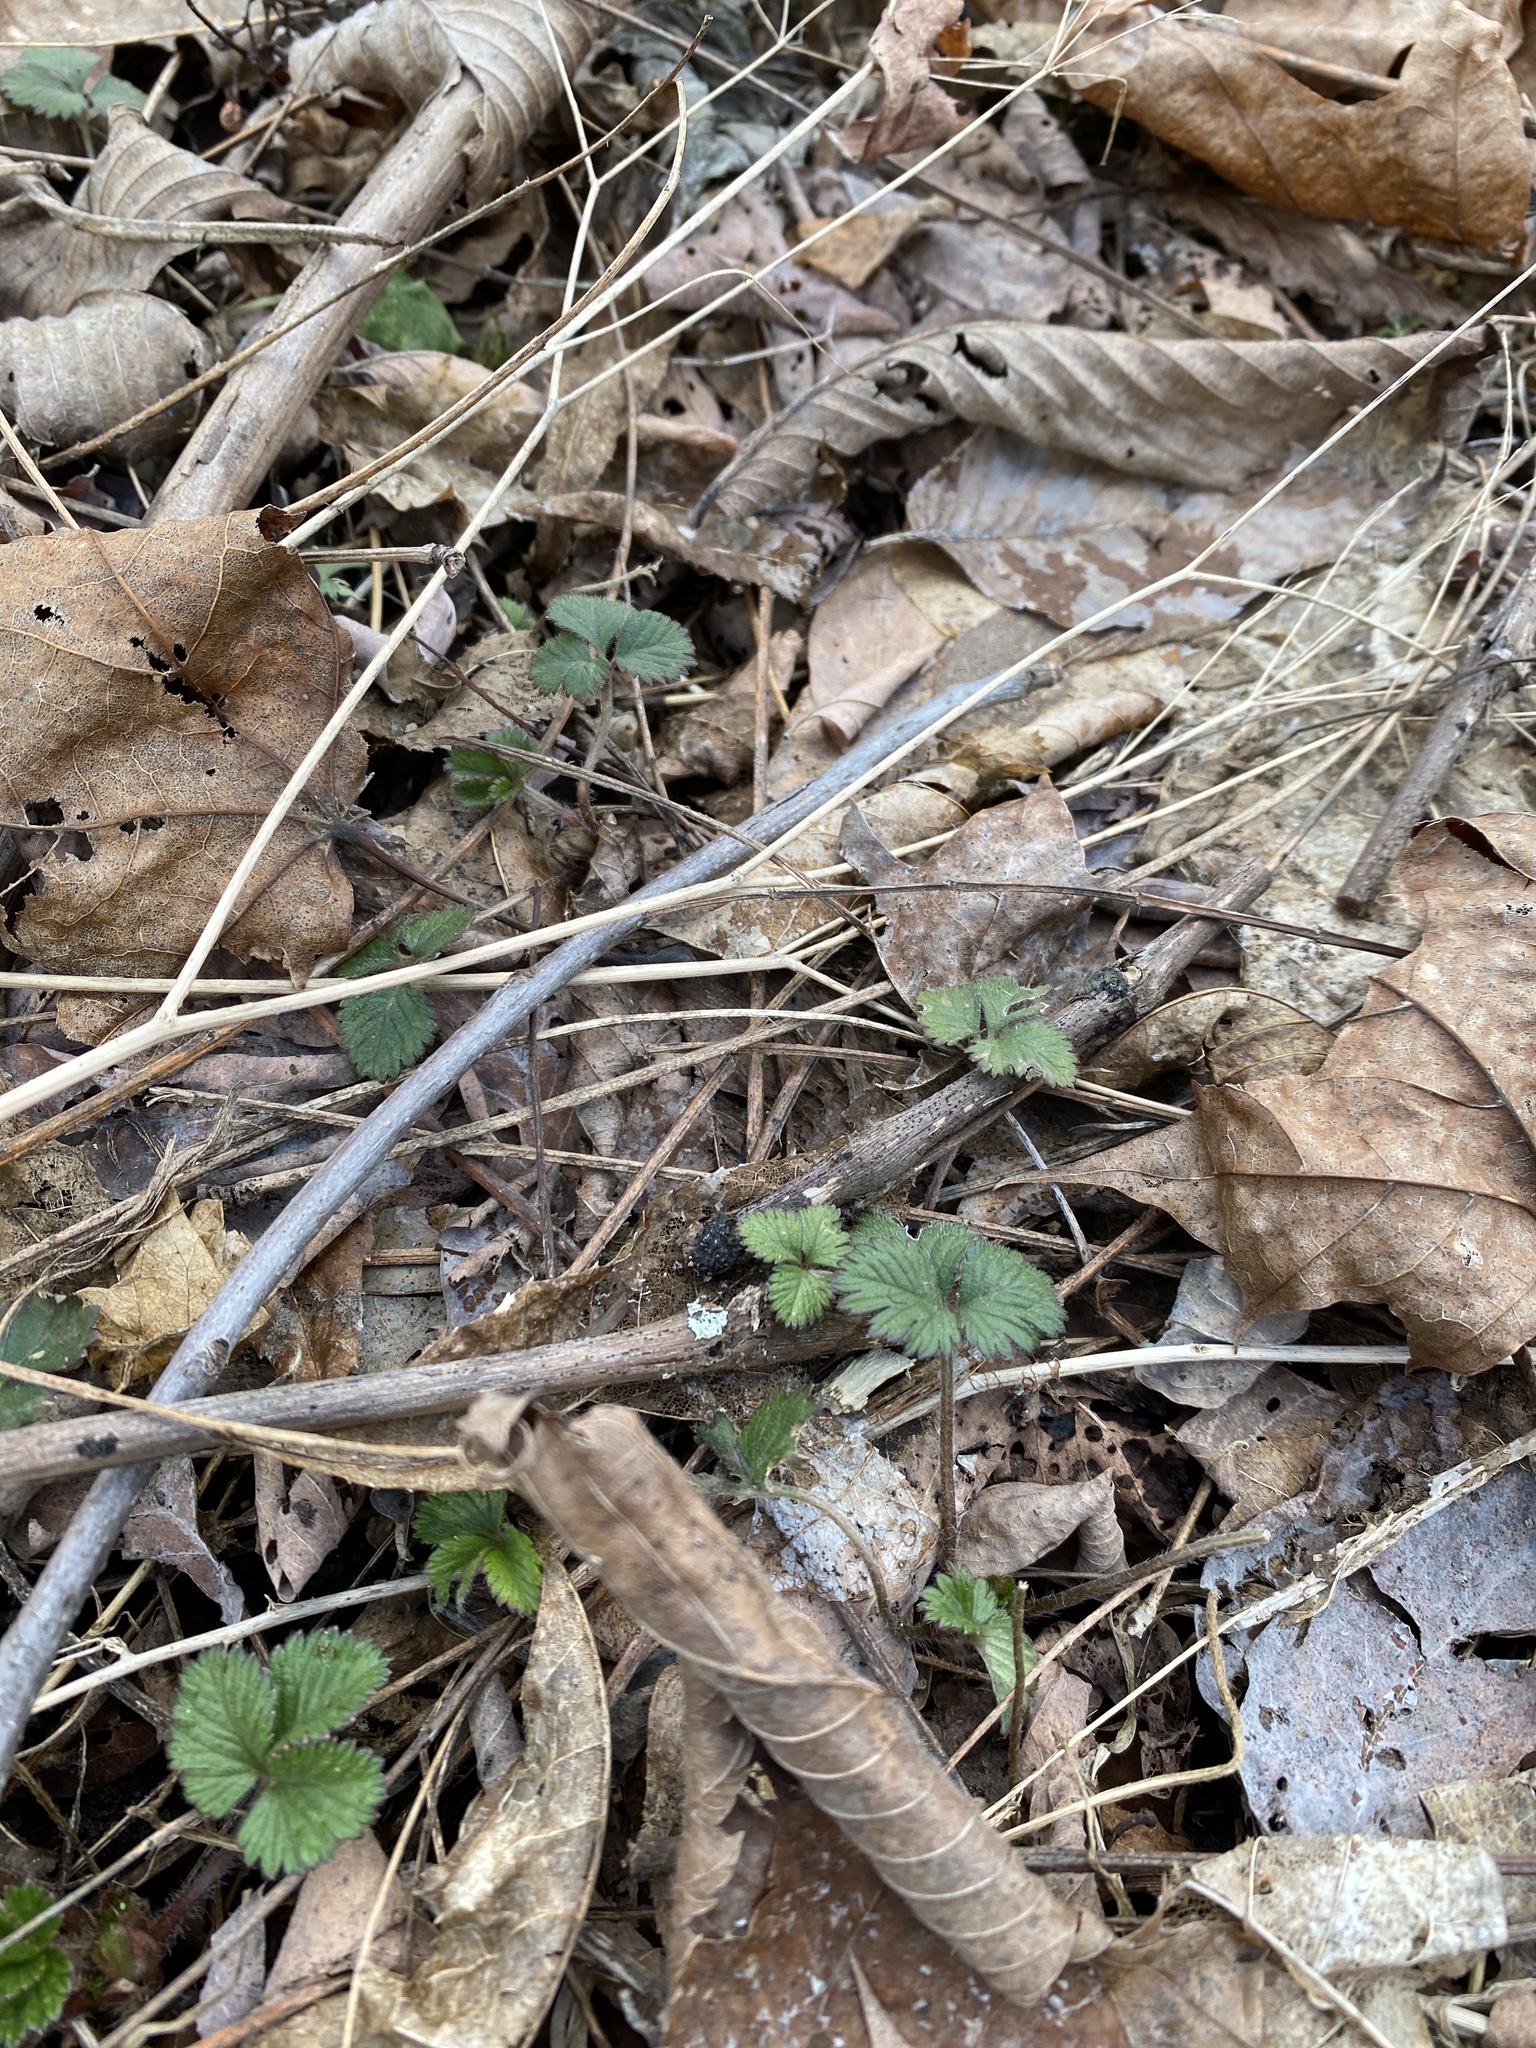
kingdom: Plantae
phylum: Tracheophyta
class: Magnoliopsida
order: Rosales
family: Rosaceae
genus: Potentilla
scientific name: Potentilla indica
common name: Yellow-flowered strawberry
